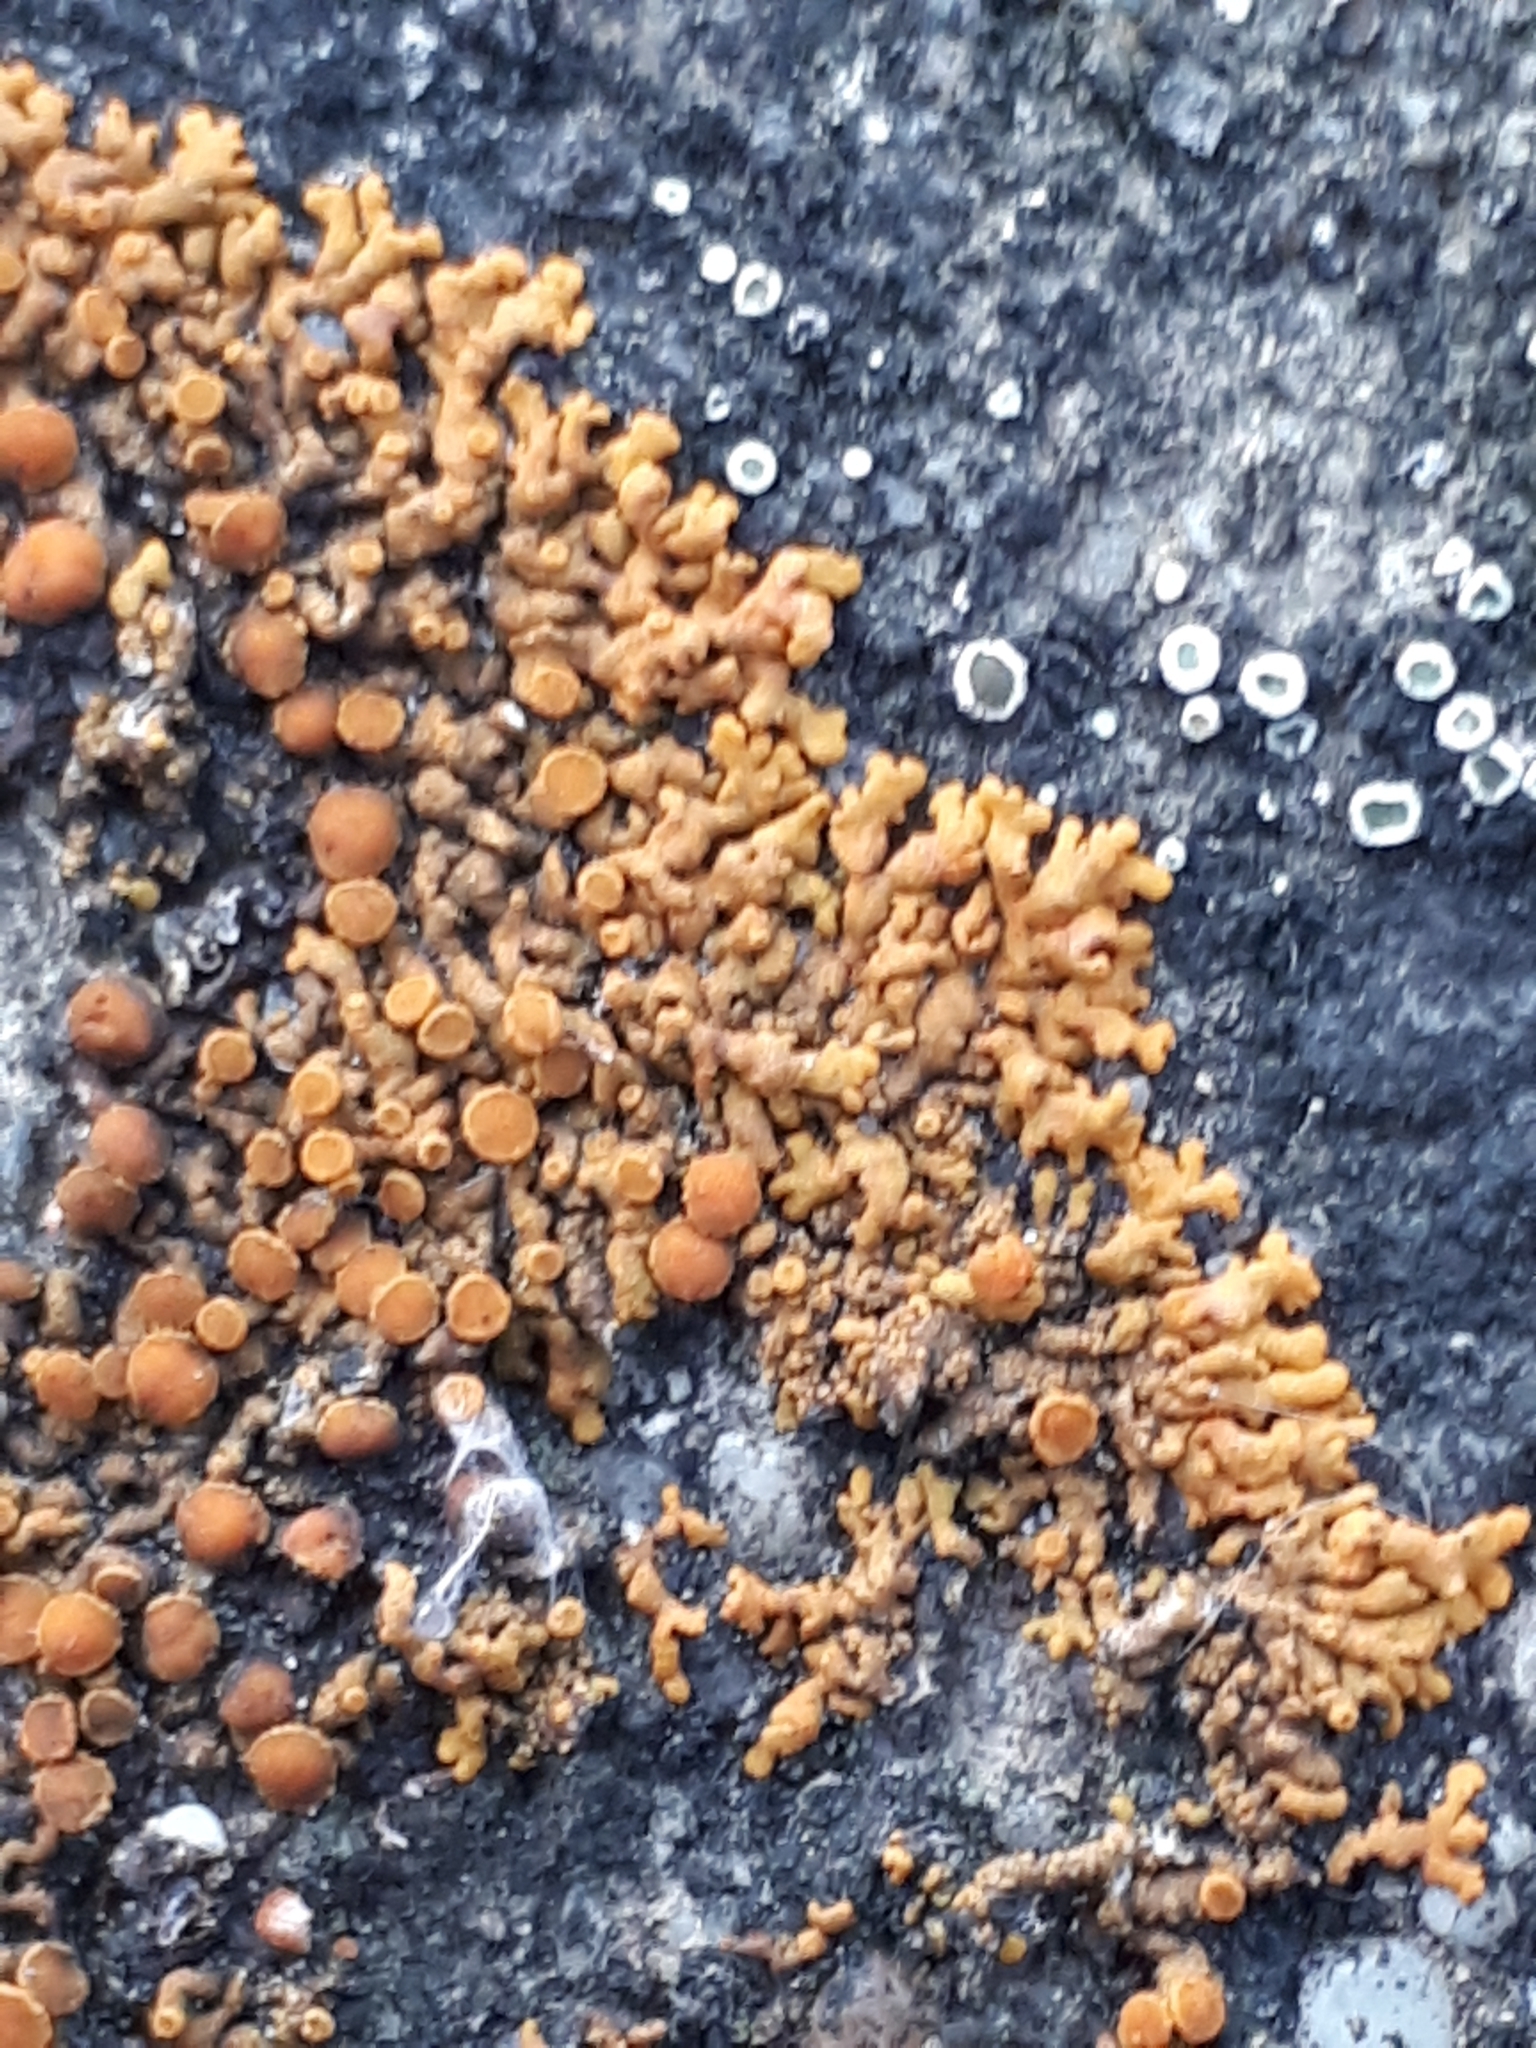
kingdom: Fungi
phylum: Ascomycota
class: Lecanoromycetes
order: Teloschistales
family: Teloschistaceae
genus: Xanthoria
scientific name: Xanthoria elegans
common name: Elegant sunburst lichen
